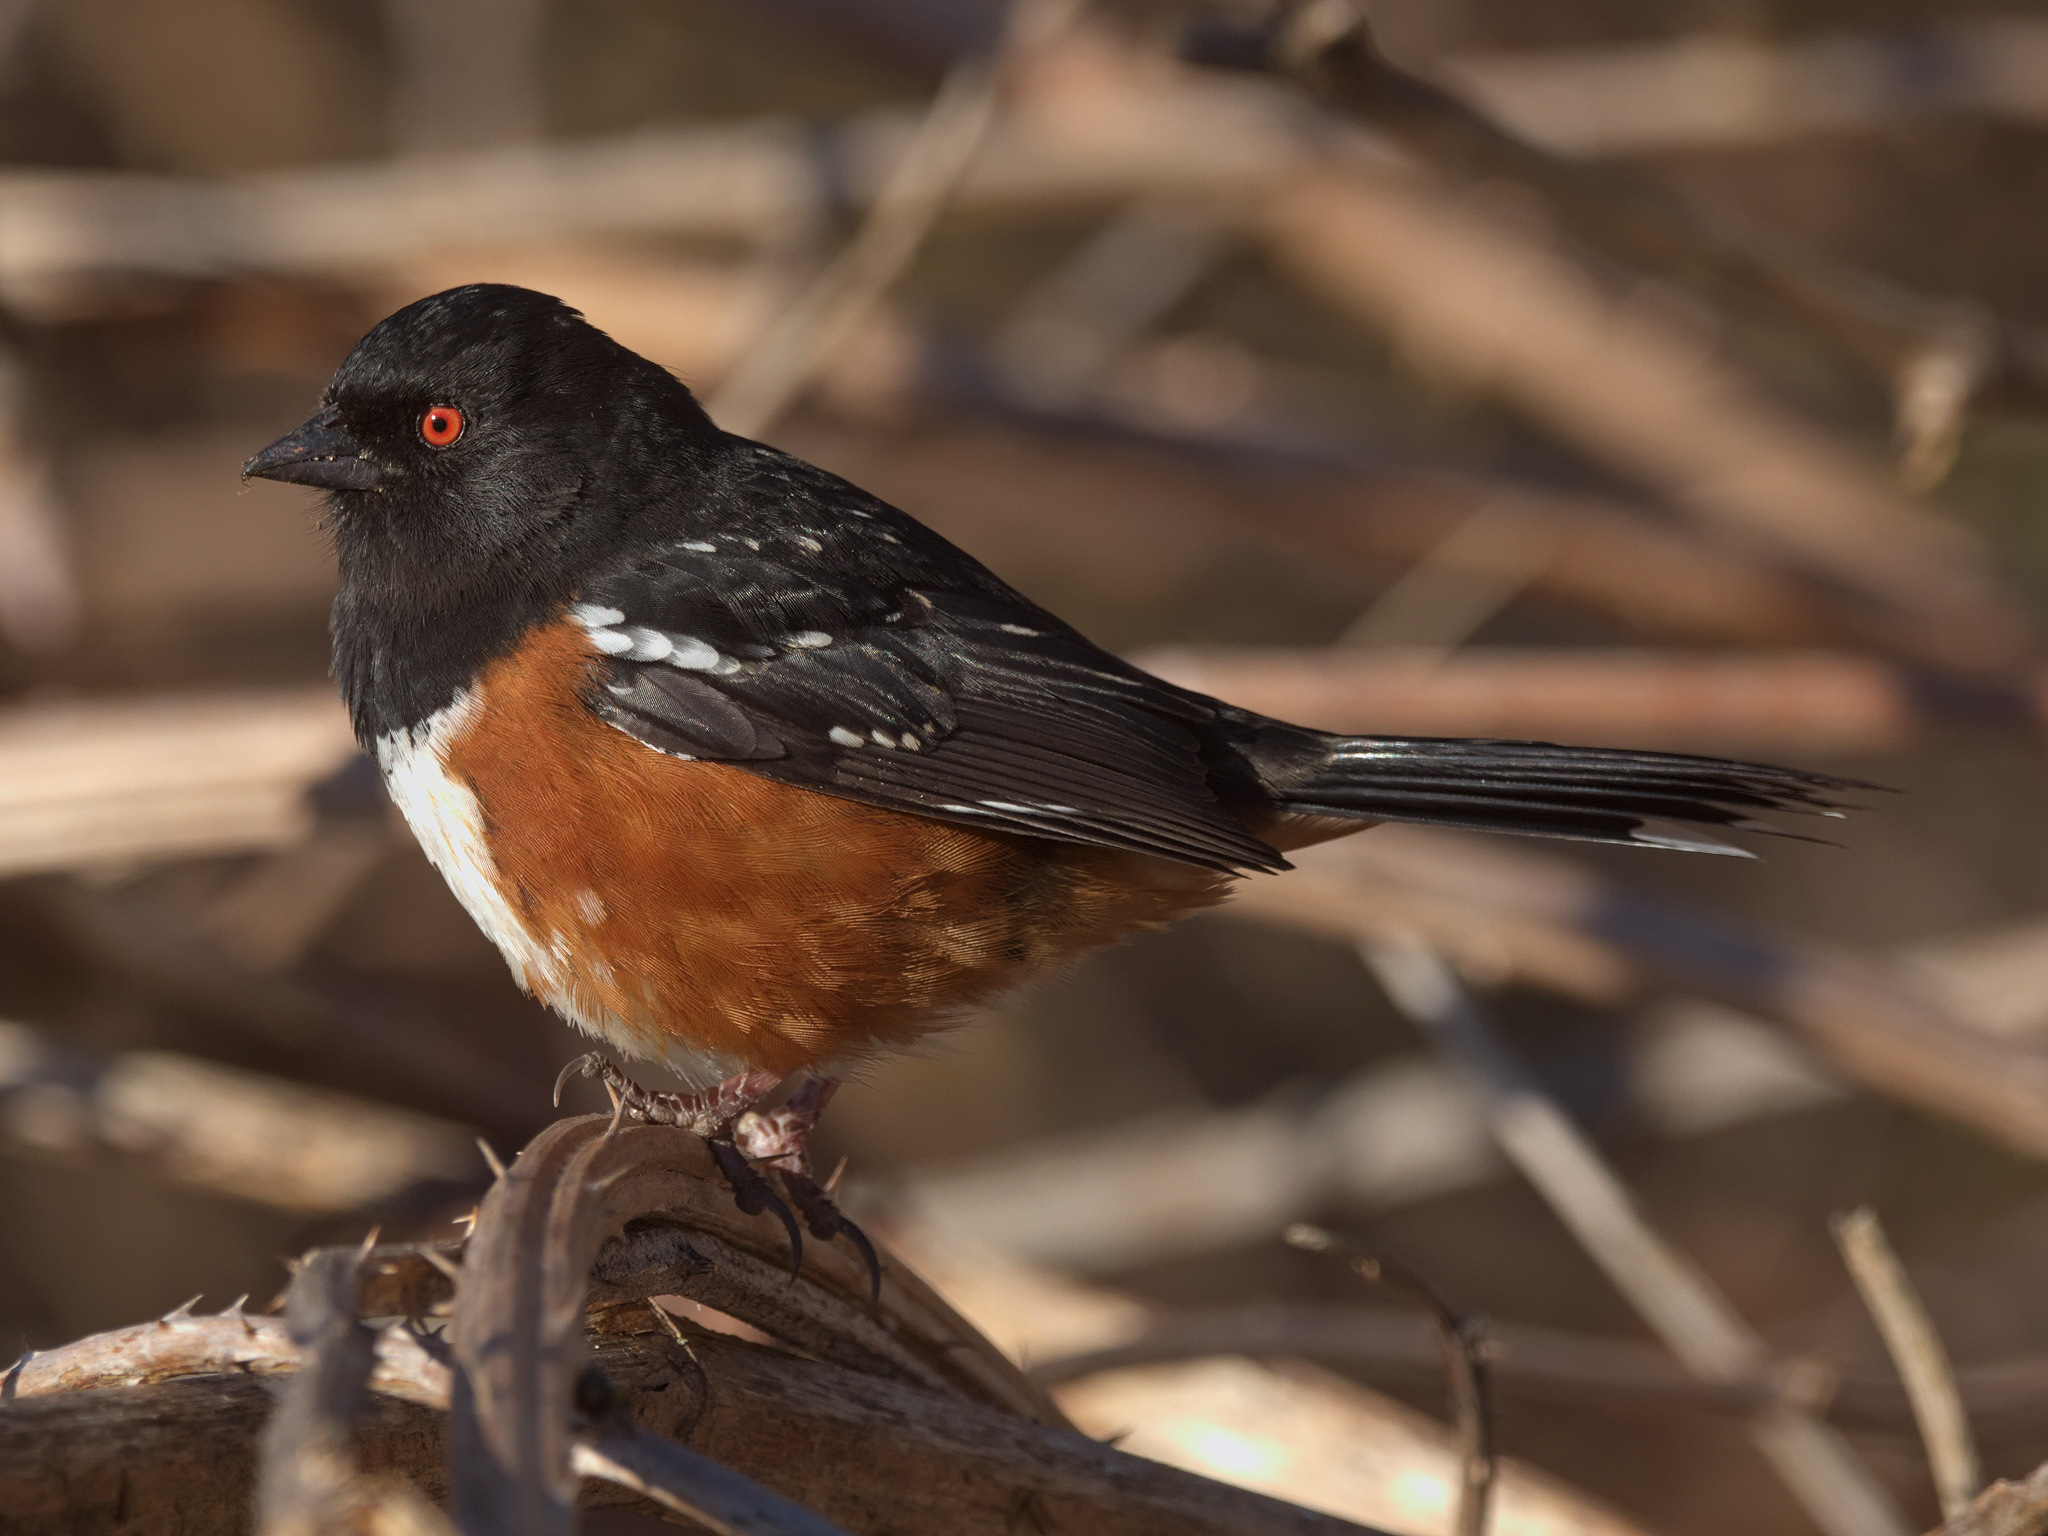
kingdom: Animalia
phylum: Chordata
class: Aves
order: Passeriformes
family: Passerellidae
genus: Pipilo
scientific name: Pipilo maculatus
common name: Spotted towhee
